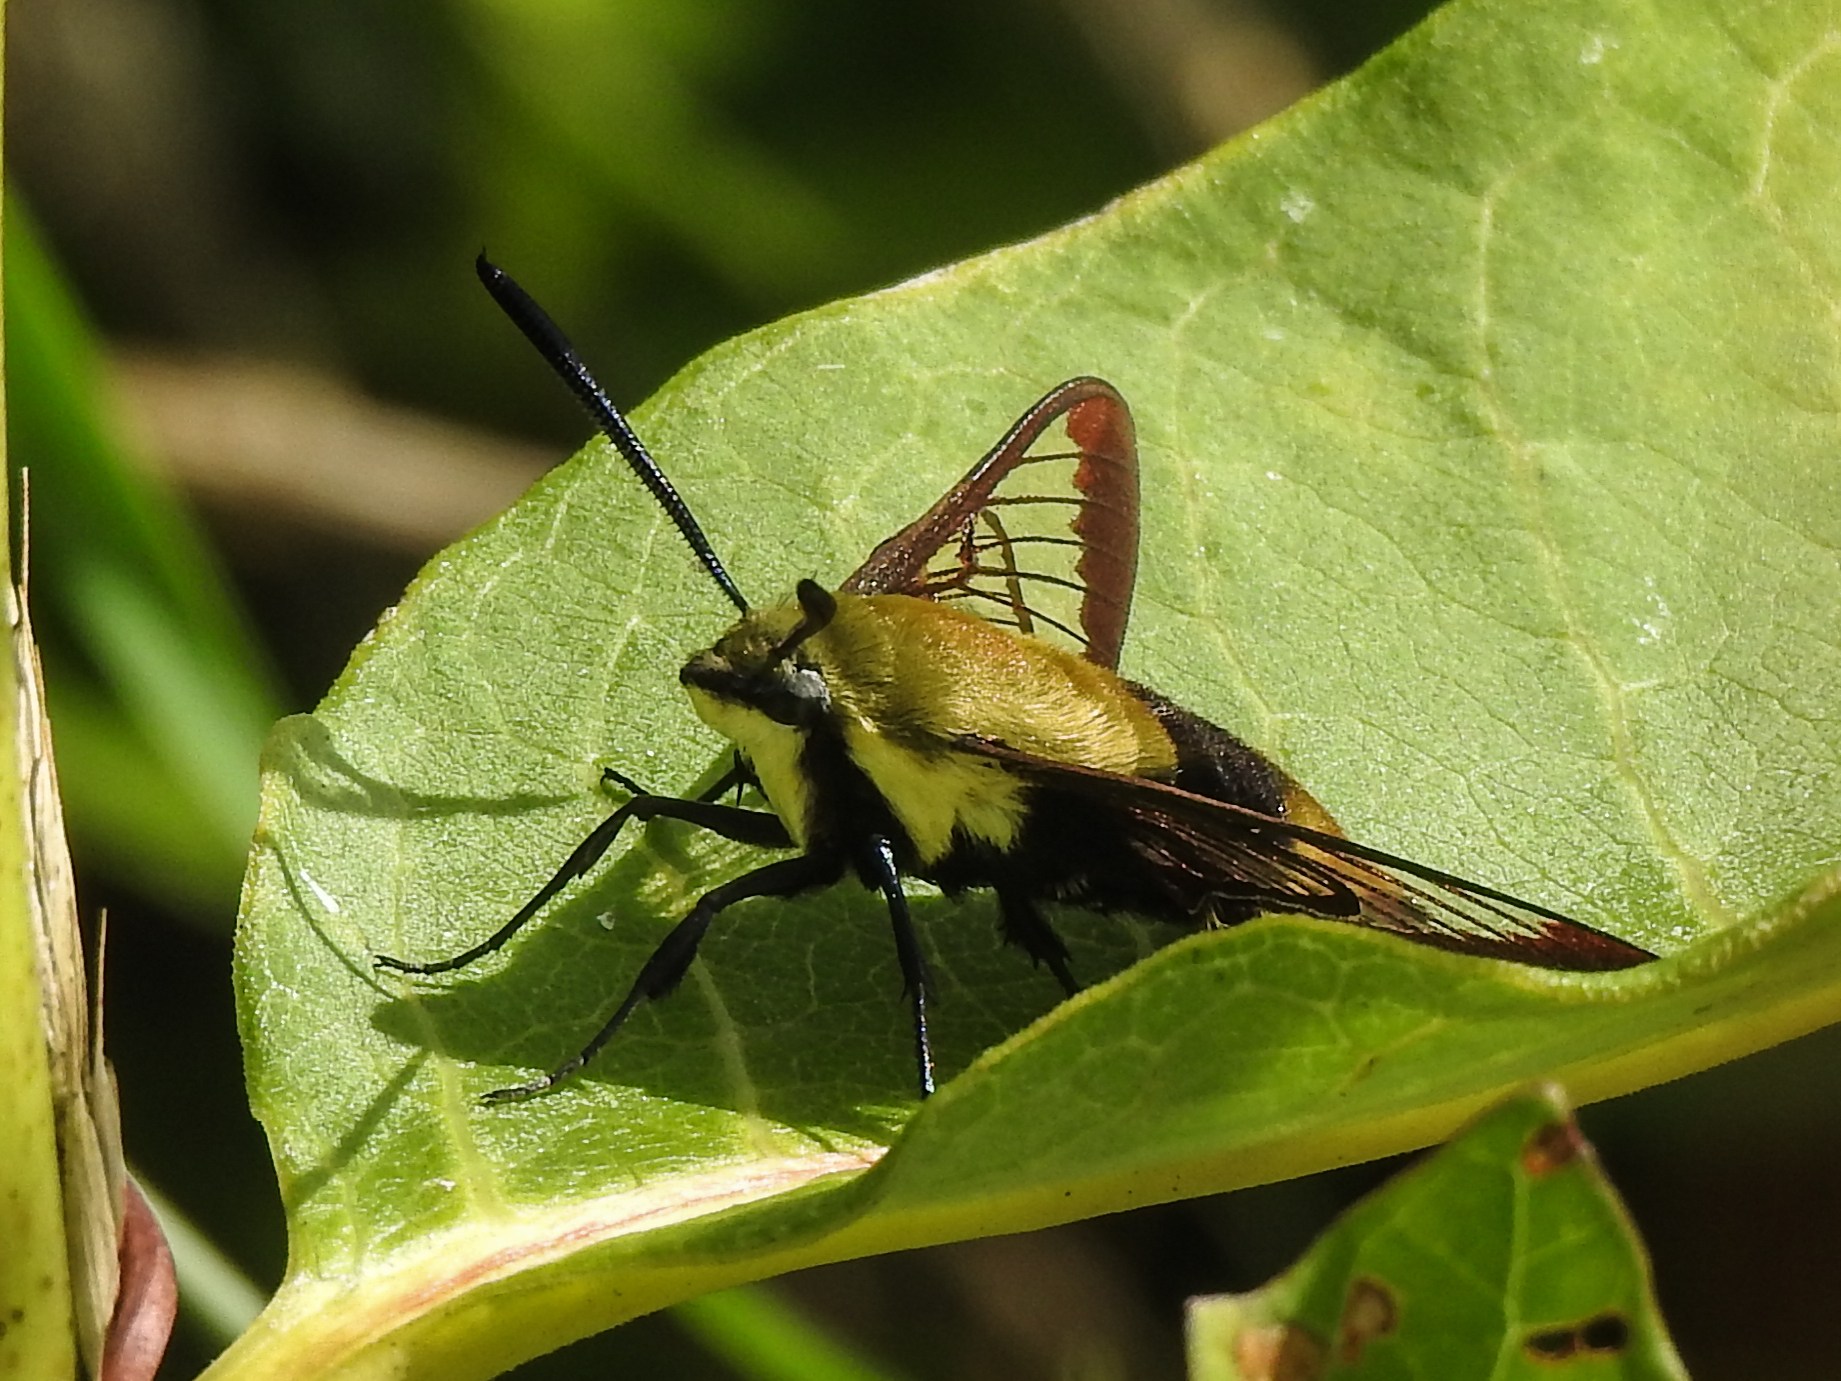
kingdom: Animalia
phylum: Arthropoda
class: Insecta
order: Lepidoptera
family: Sphingidae
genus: Hemaris
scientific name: Hemaris diffinis
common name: Bumblebee moth
